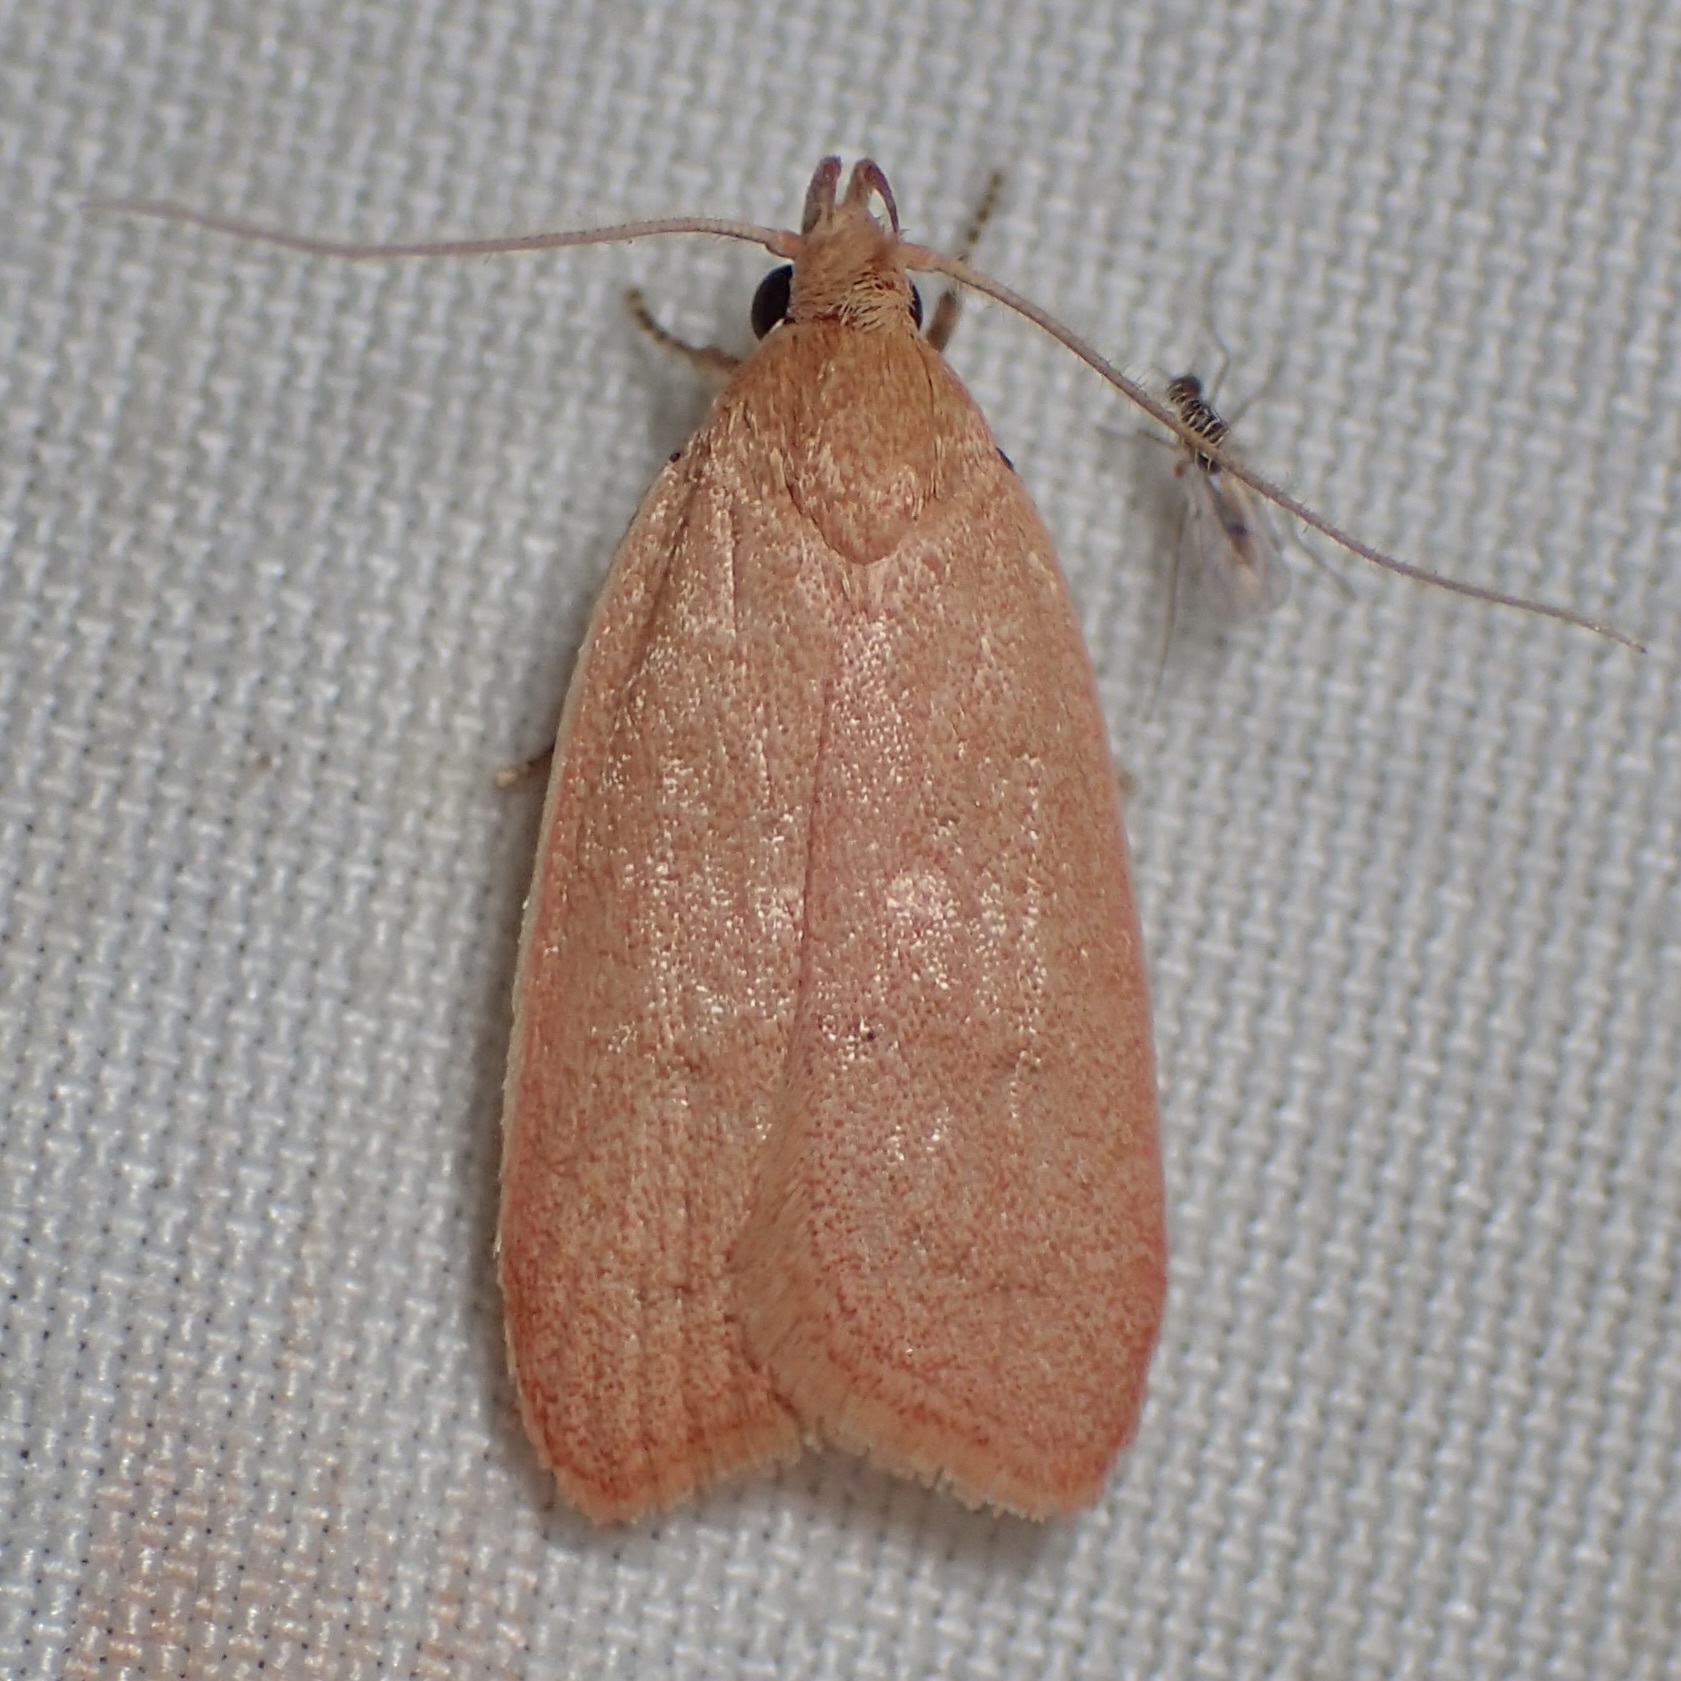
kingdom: Animalia
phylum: Arthropoda
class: Insecta
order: Lepidoptera
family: Depressariidae
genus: Himmacia
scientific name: Himmacia huachucella
